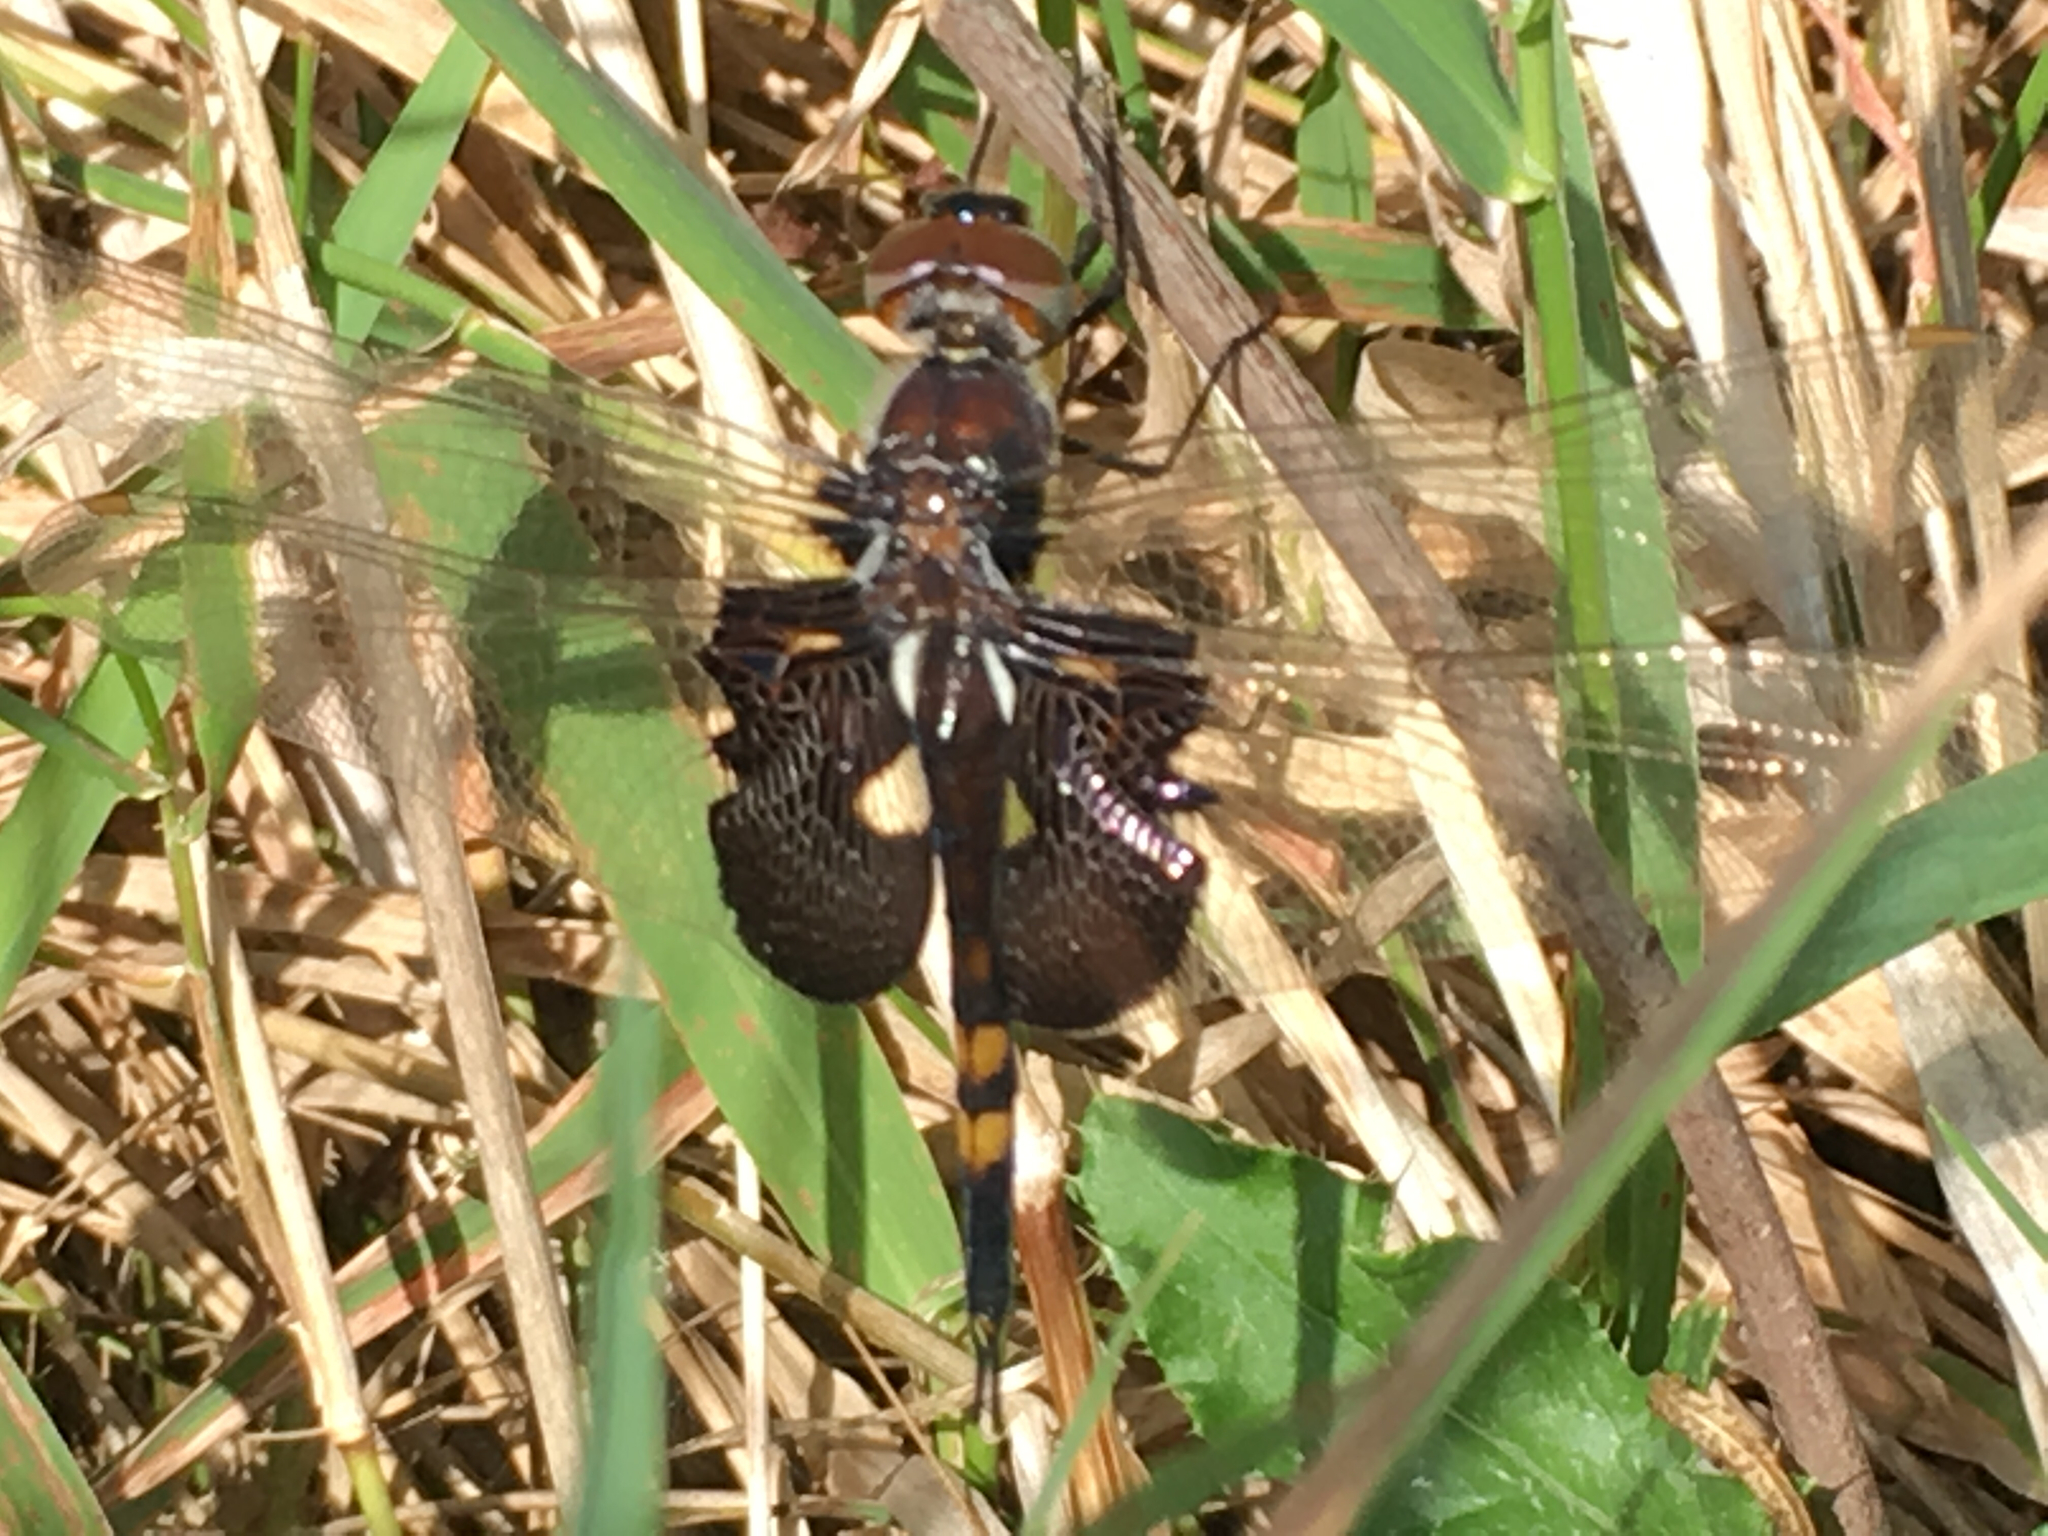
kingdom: Animalia
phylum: Arthropoda
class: Insecta
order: Odonata
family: Libellulidae
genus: Tramea
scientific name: Tramea lacerata
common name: Black saddlebags
